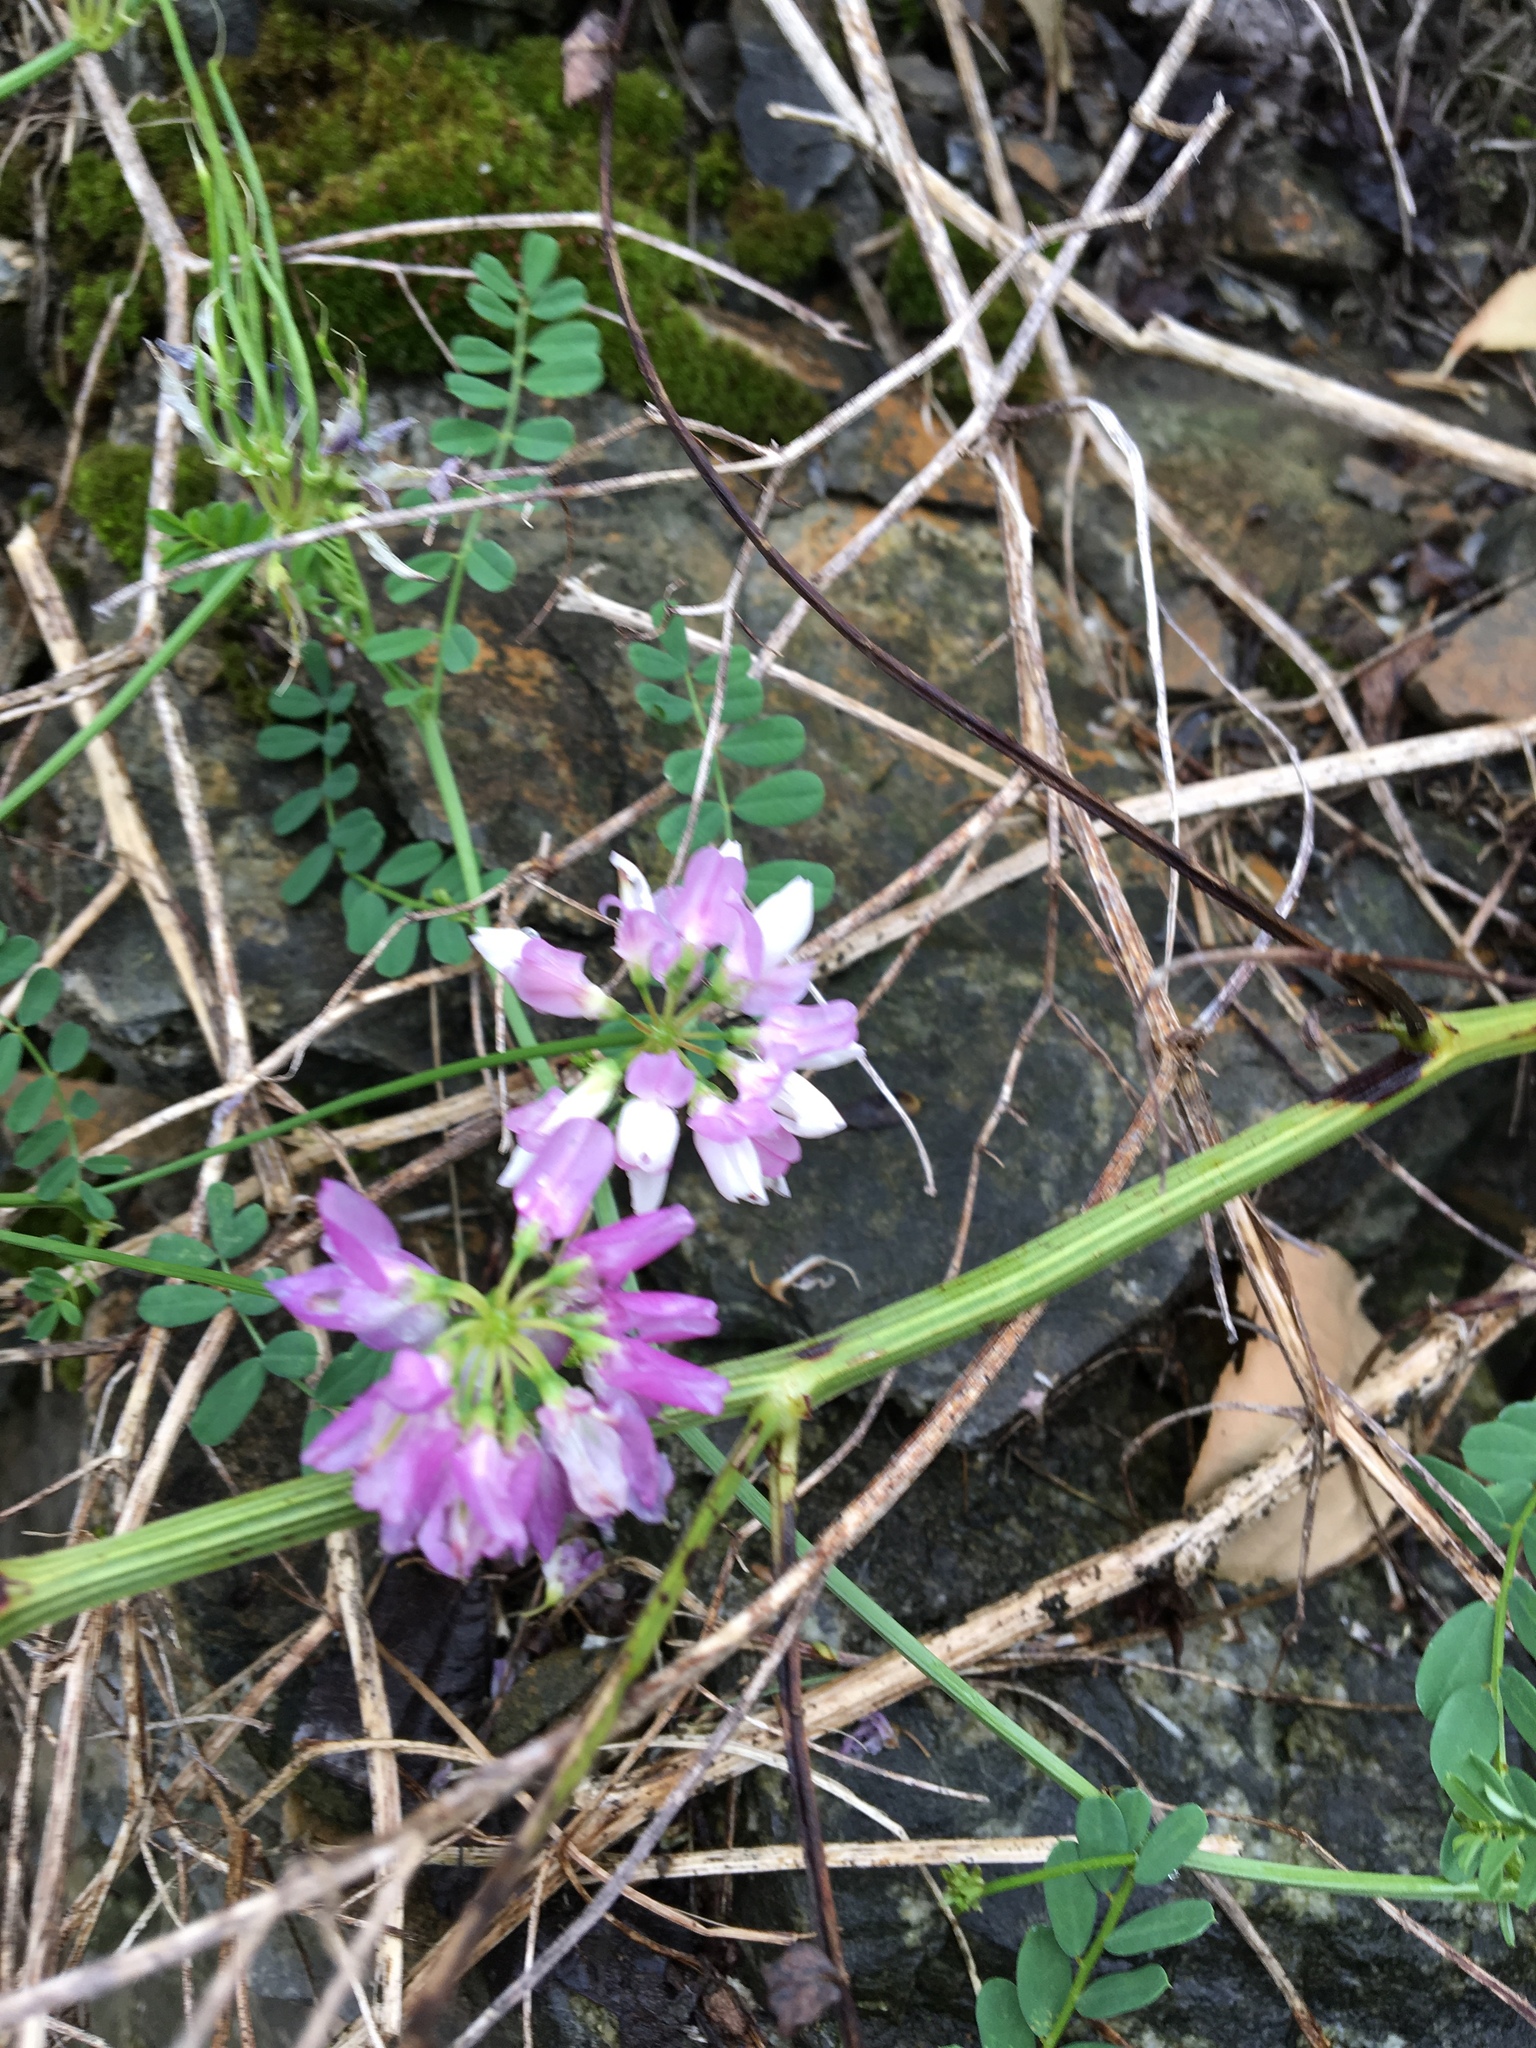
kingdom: Plantae
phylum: Tracheophyta
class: Magnoliopsida
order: Fabales
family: Fabaceae
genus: Coronilla
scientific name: Coronilla varia
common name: Crownvetch
